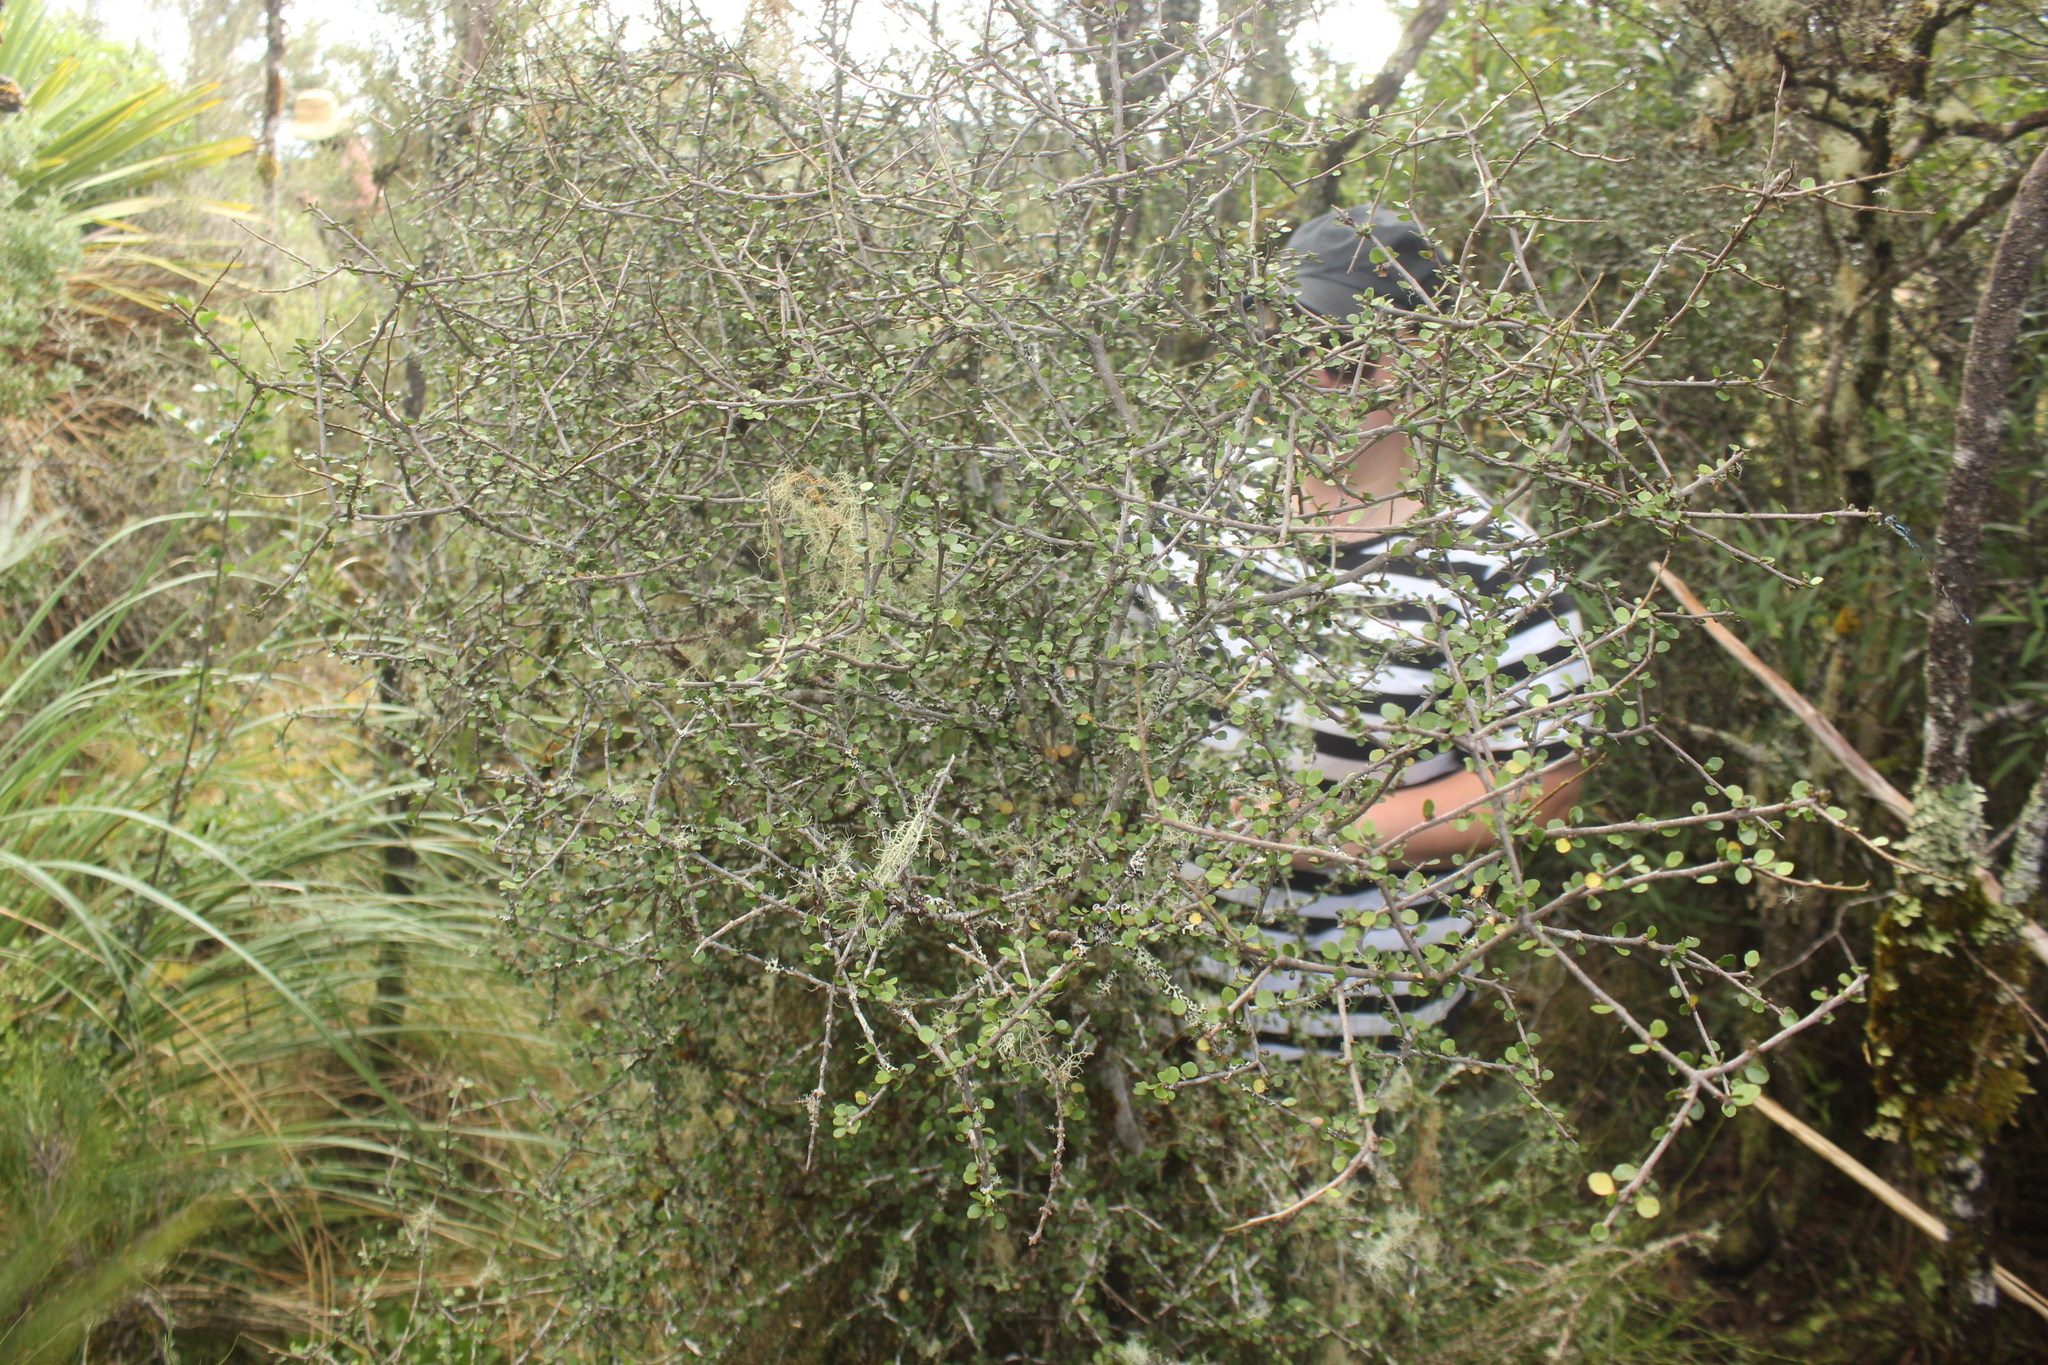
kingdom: Plantae
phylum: Tracheophyta
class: Magnoliopsida
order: Apiales
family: Araliaceae
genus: Raukaua
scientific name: Raukaua anomalus
